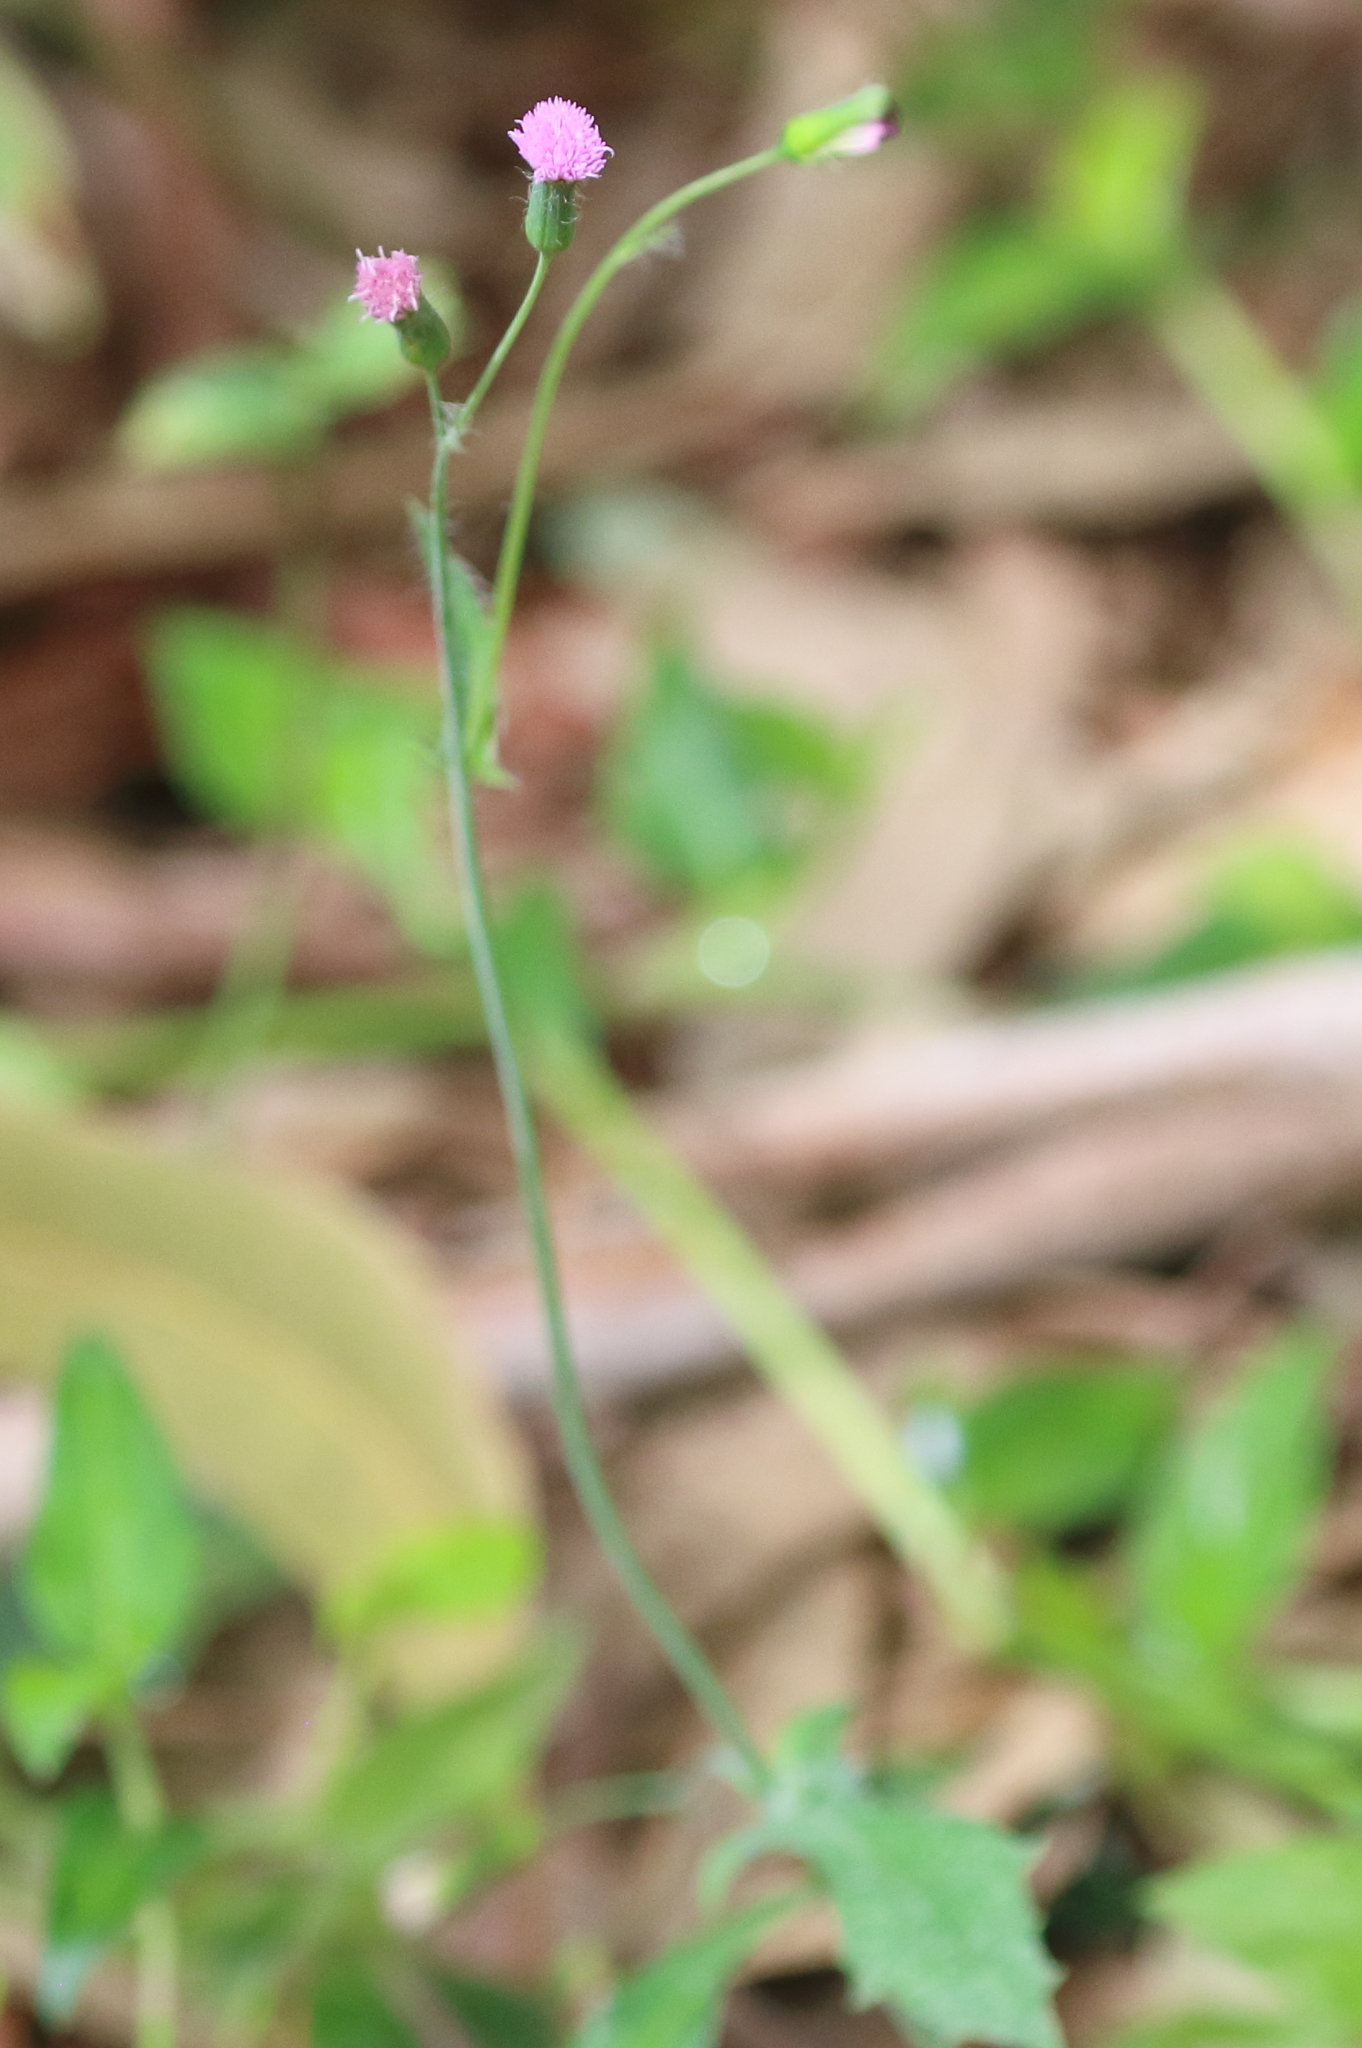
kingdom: Plantae
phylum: Tracheophyta
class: Magnoliopsida
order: Asterales
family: Asteraceae
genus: Emilia
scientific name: Emilia javanica
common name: Tassel-flower
